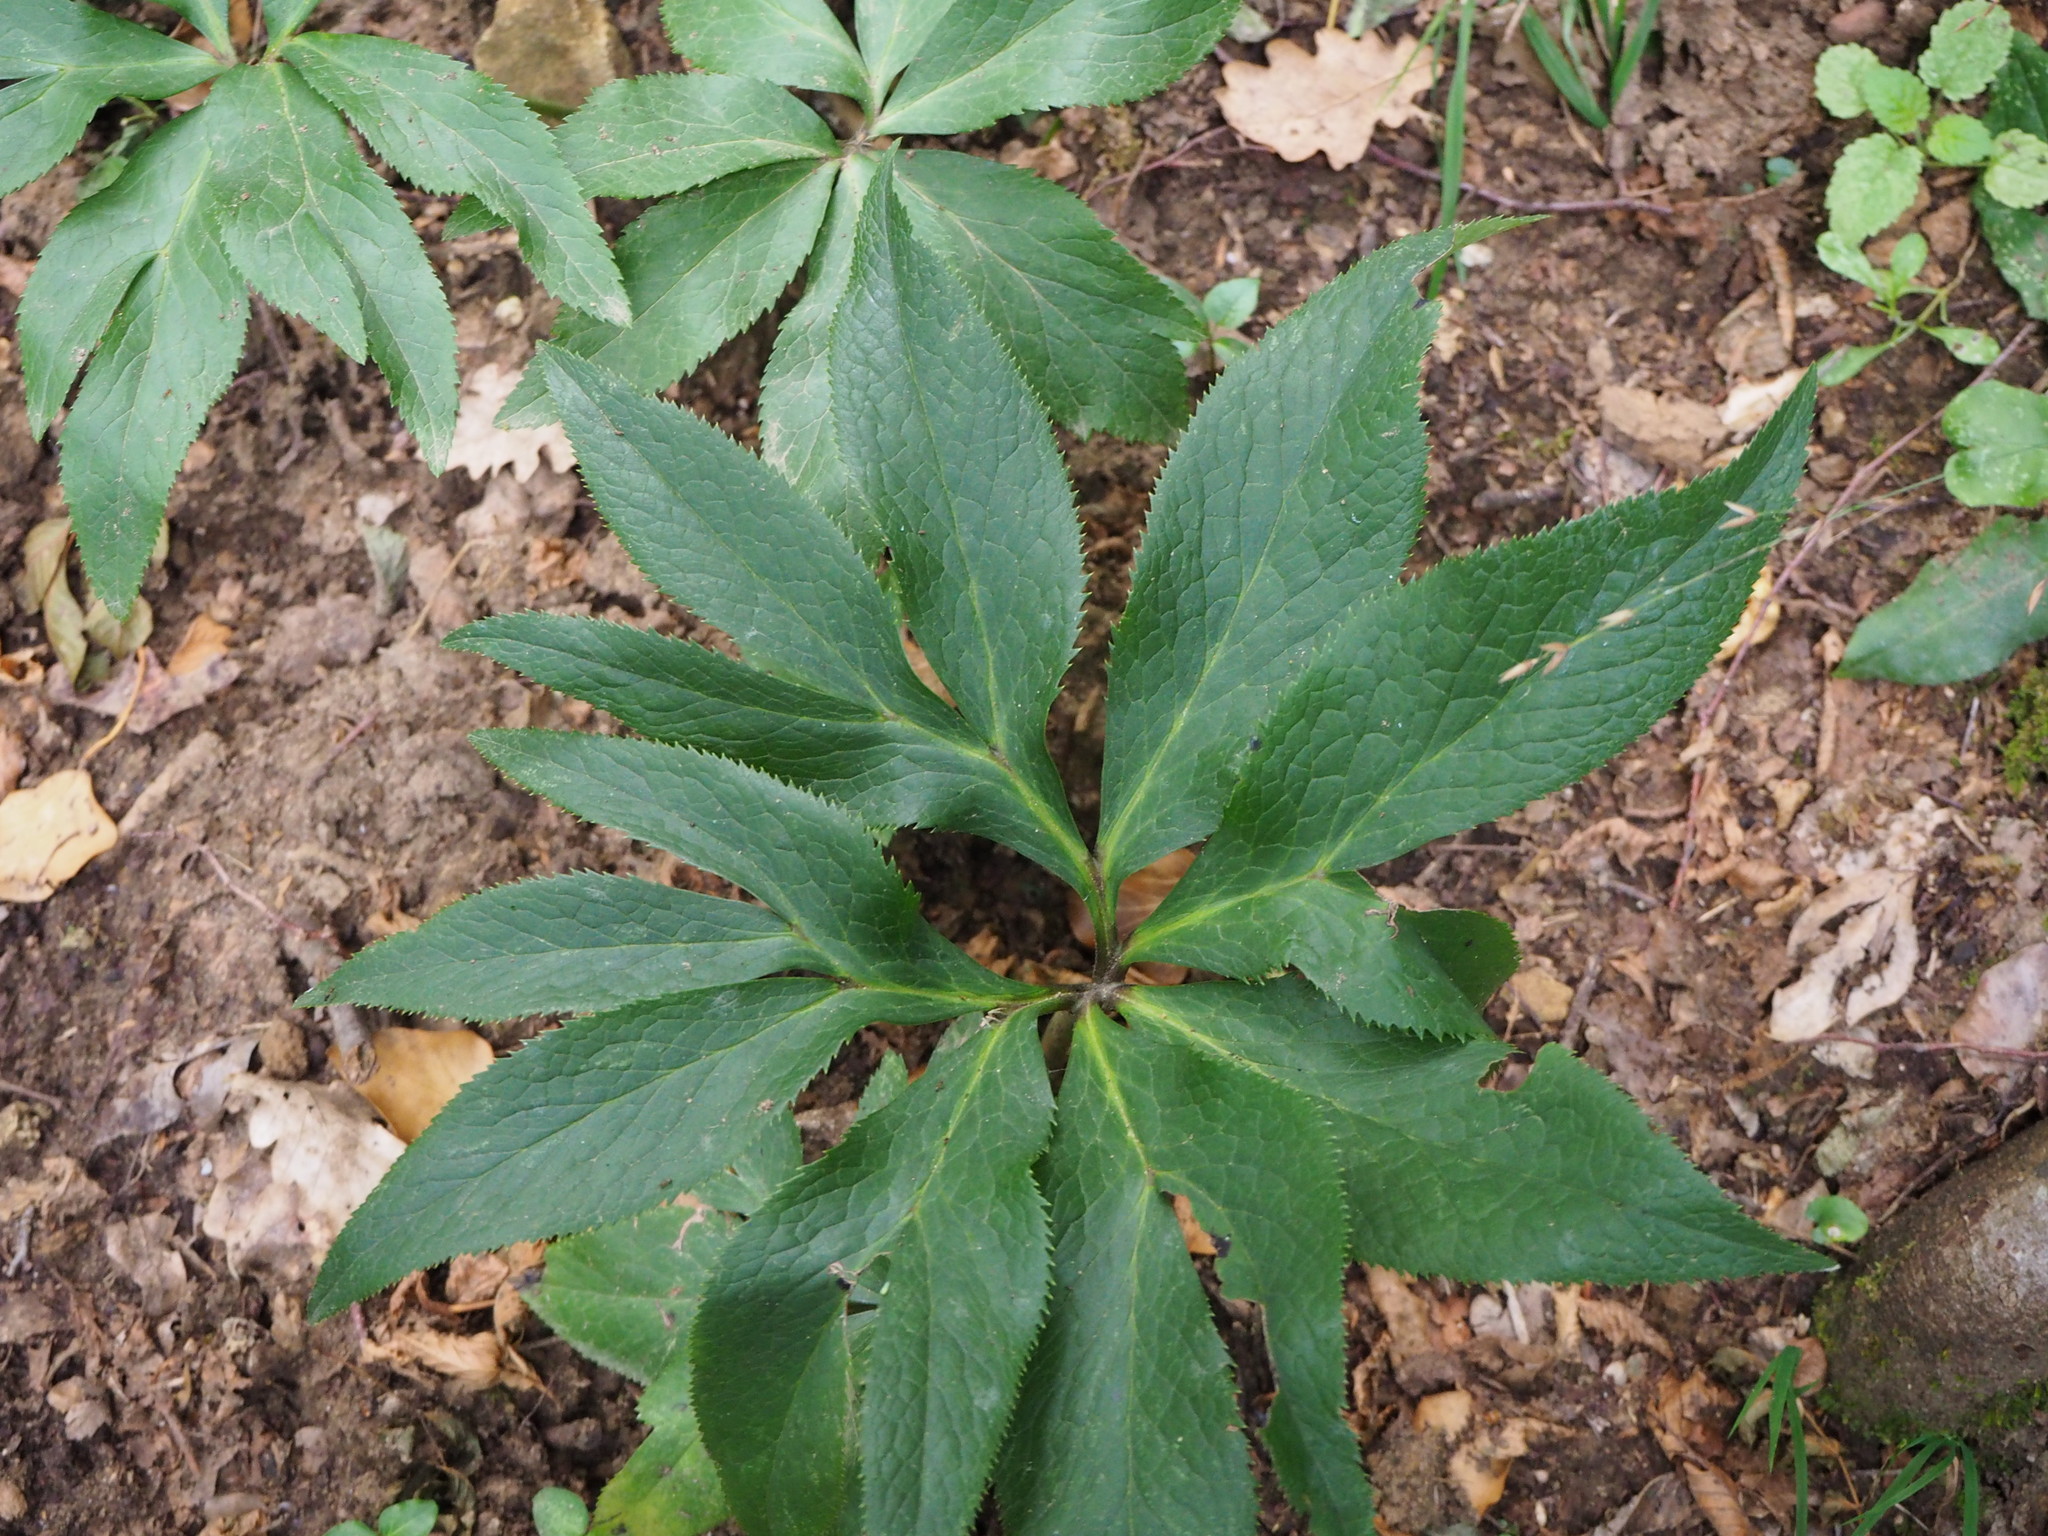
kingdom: Plantae
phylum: Tracheophyta
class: Magnoliopsida
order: Ranunculales
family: Ranunculaceae
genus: Helleborus
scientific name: Helleborus viridis
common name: Green hellebore
